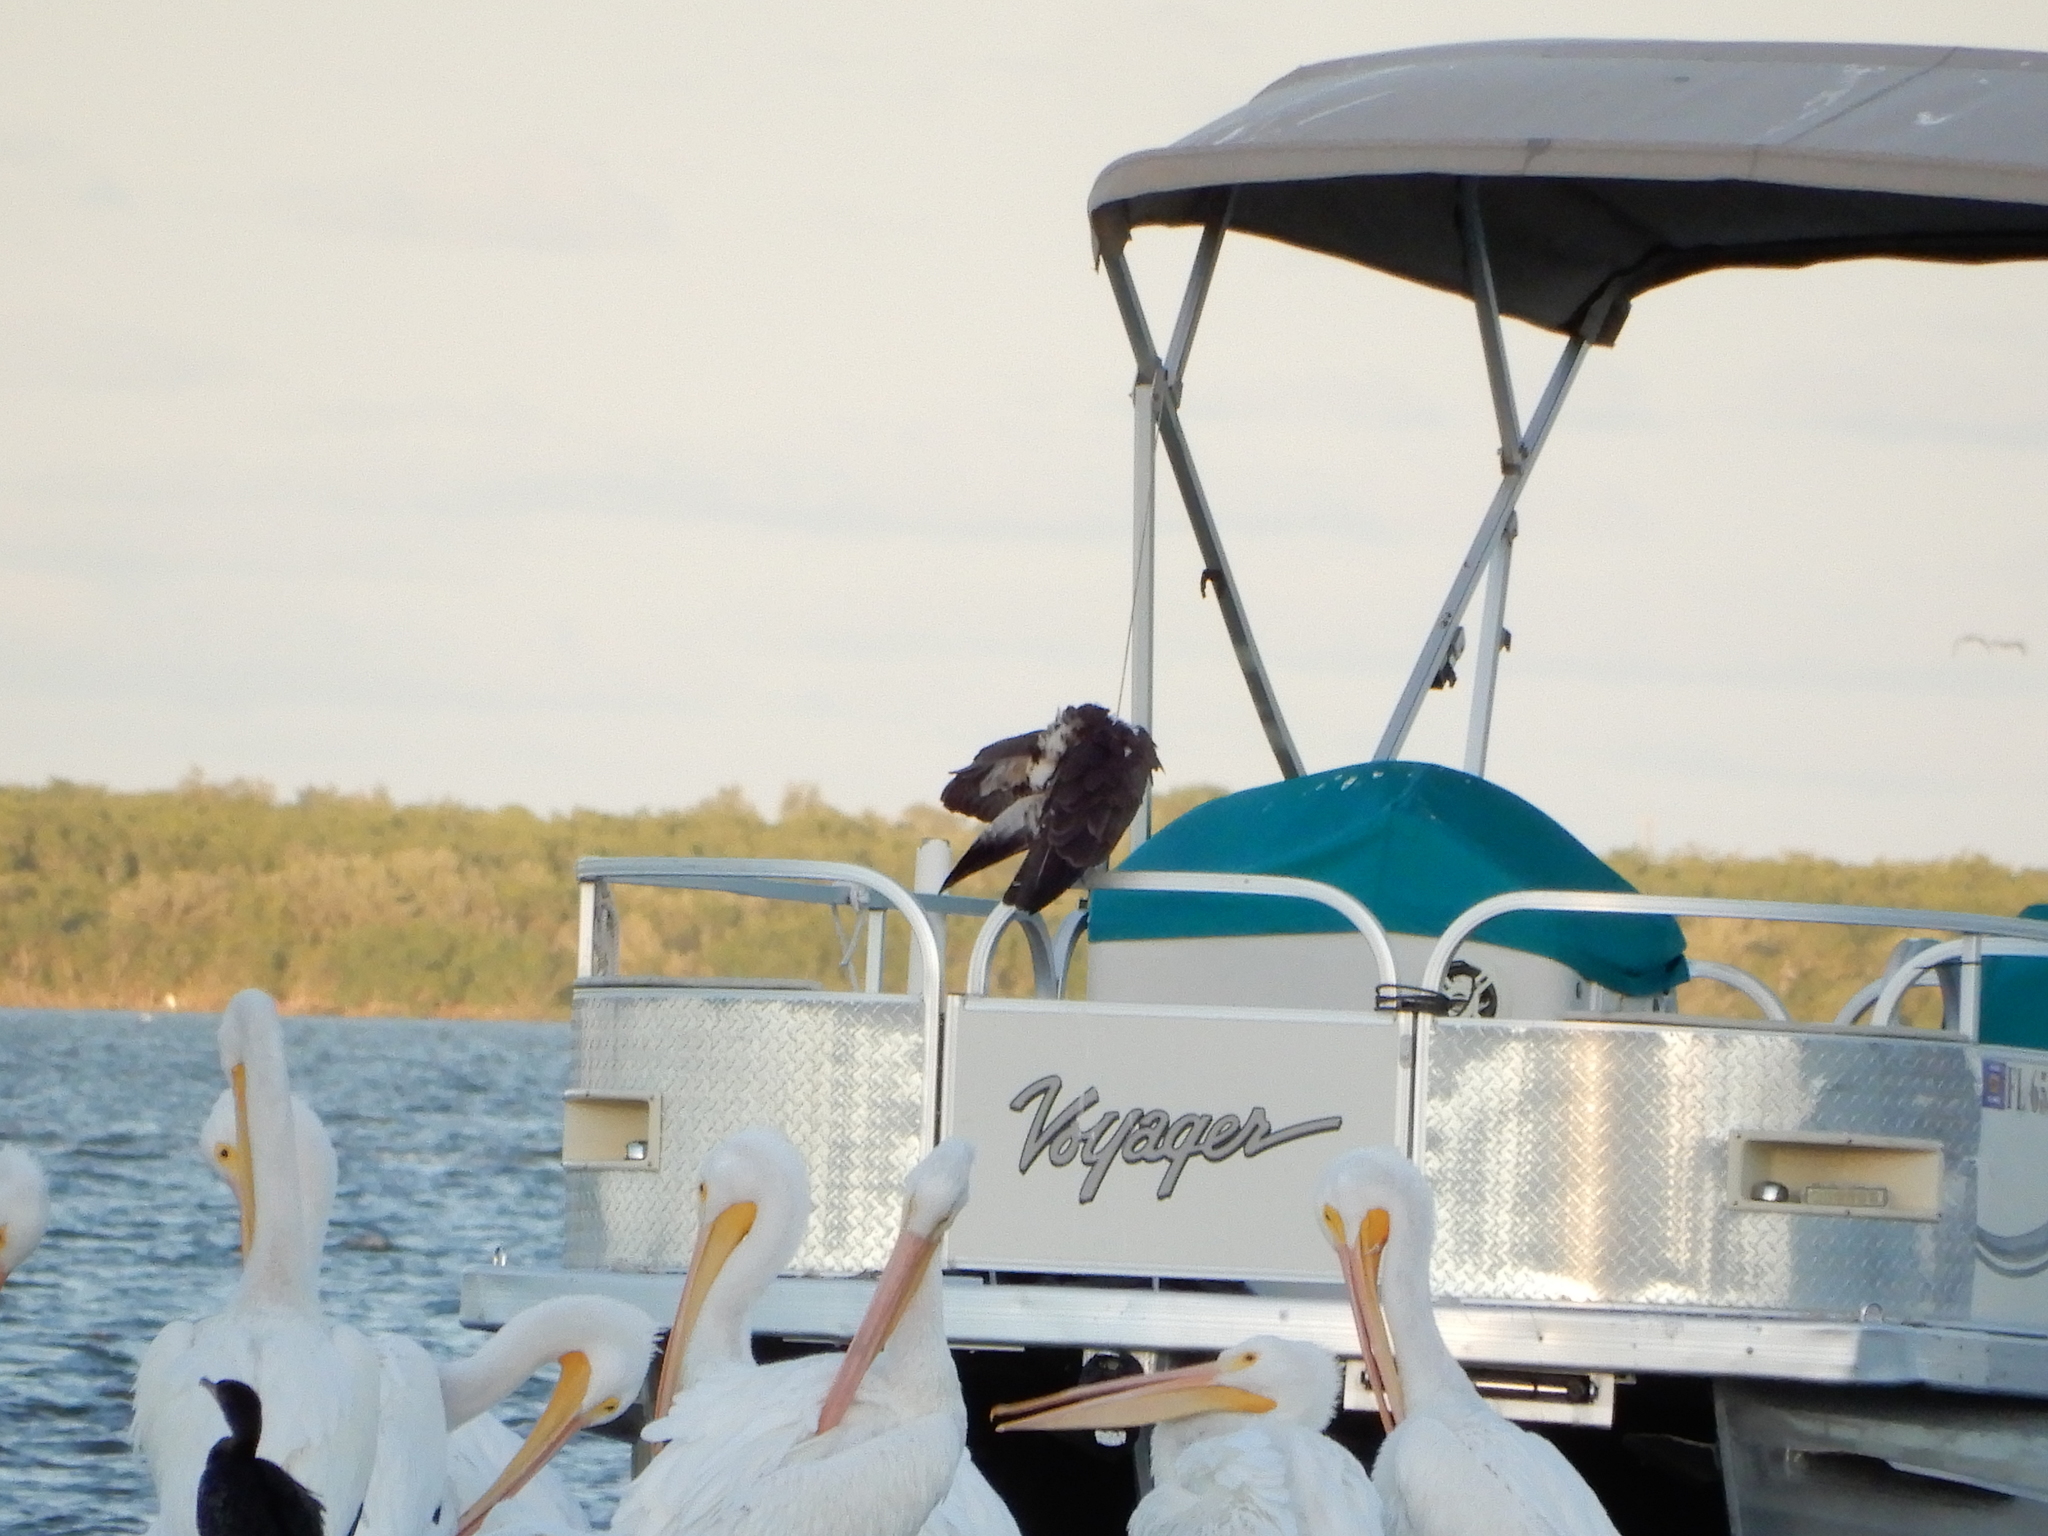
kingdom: Animalia
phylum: Chordata
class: Aves
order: Accipitriformes
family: Pandionidae
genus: Pandion
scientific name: Pandion haliaetus
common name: Osprey
